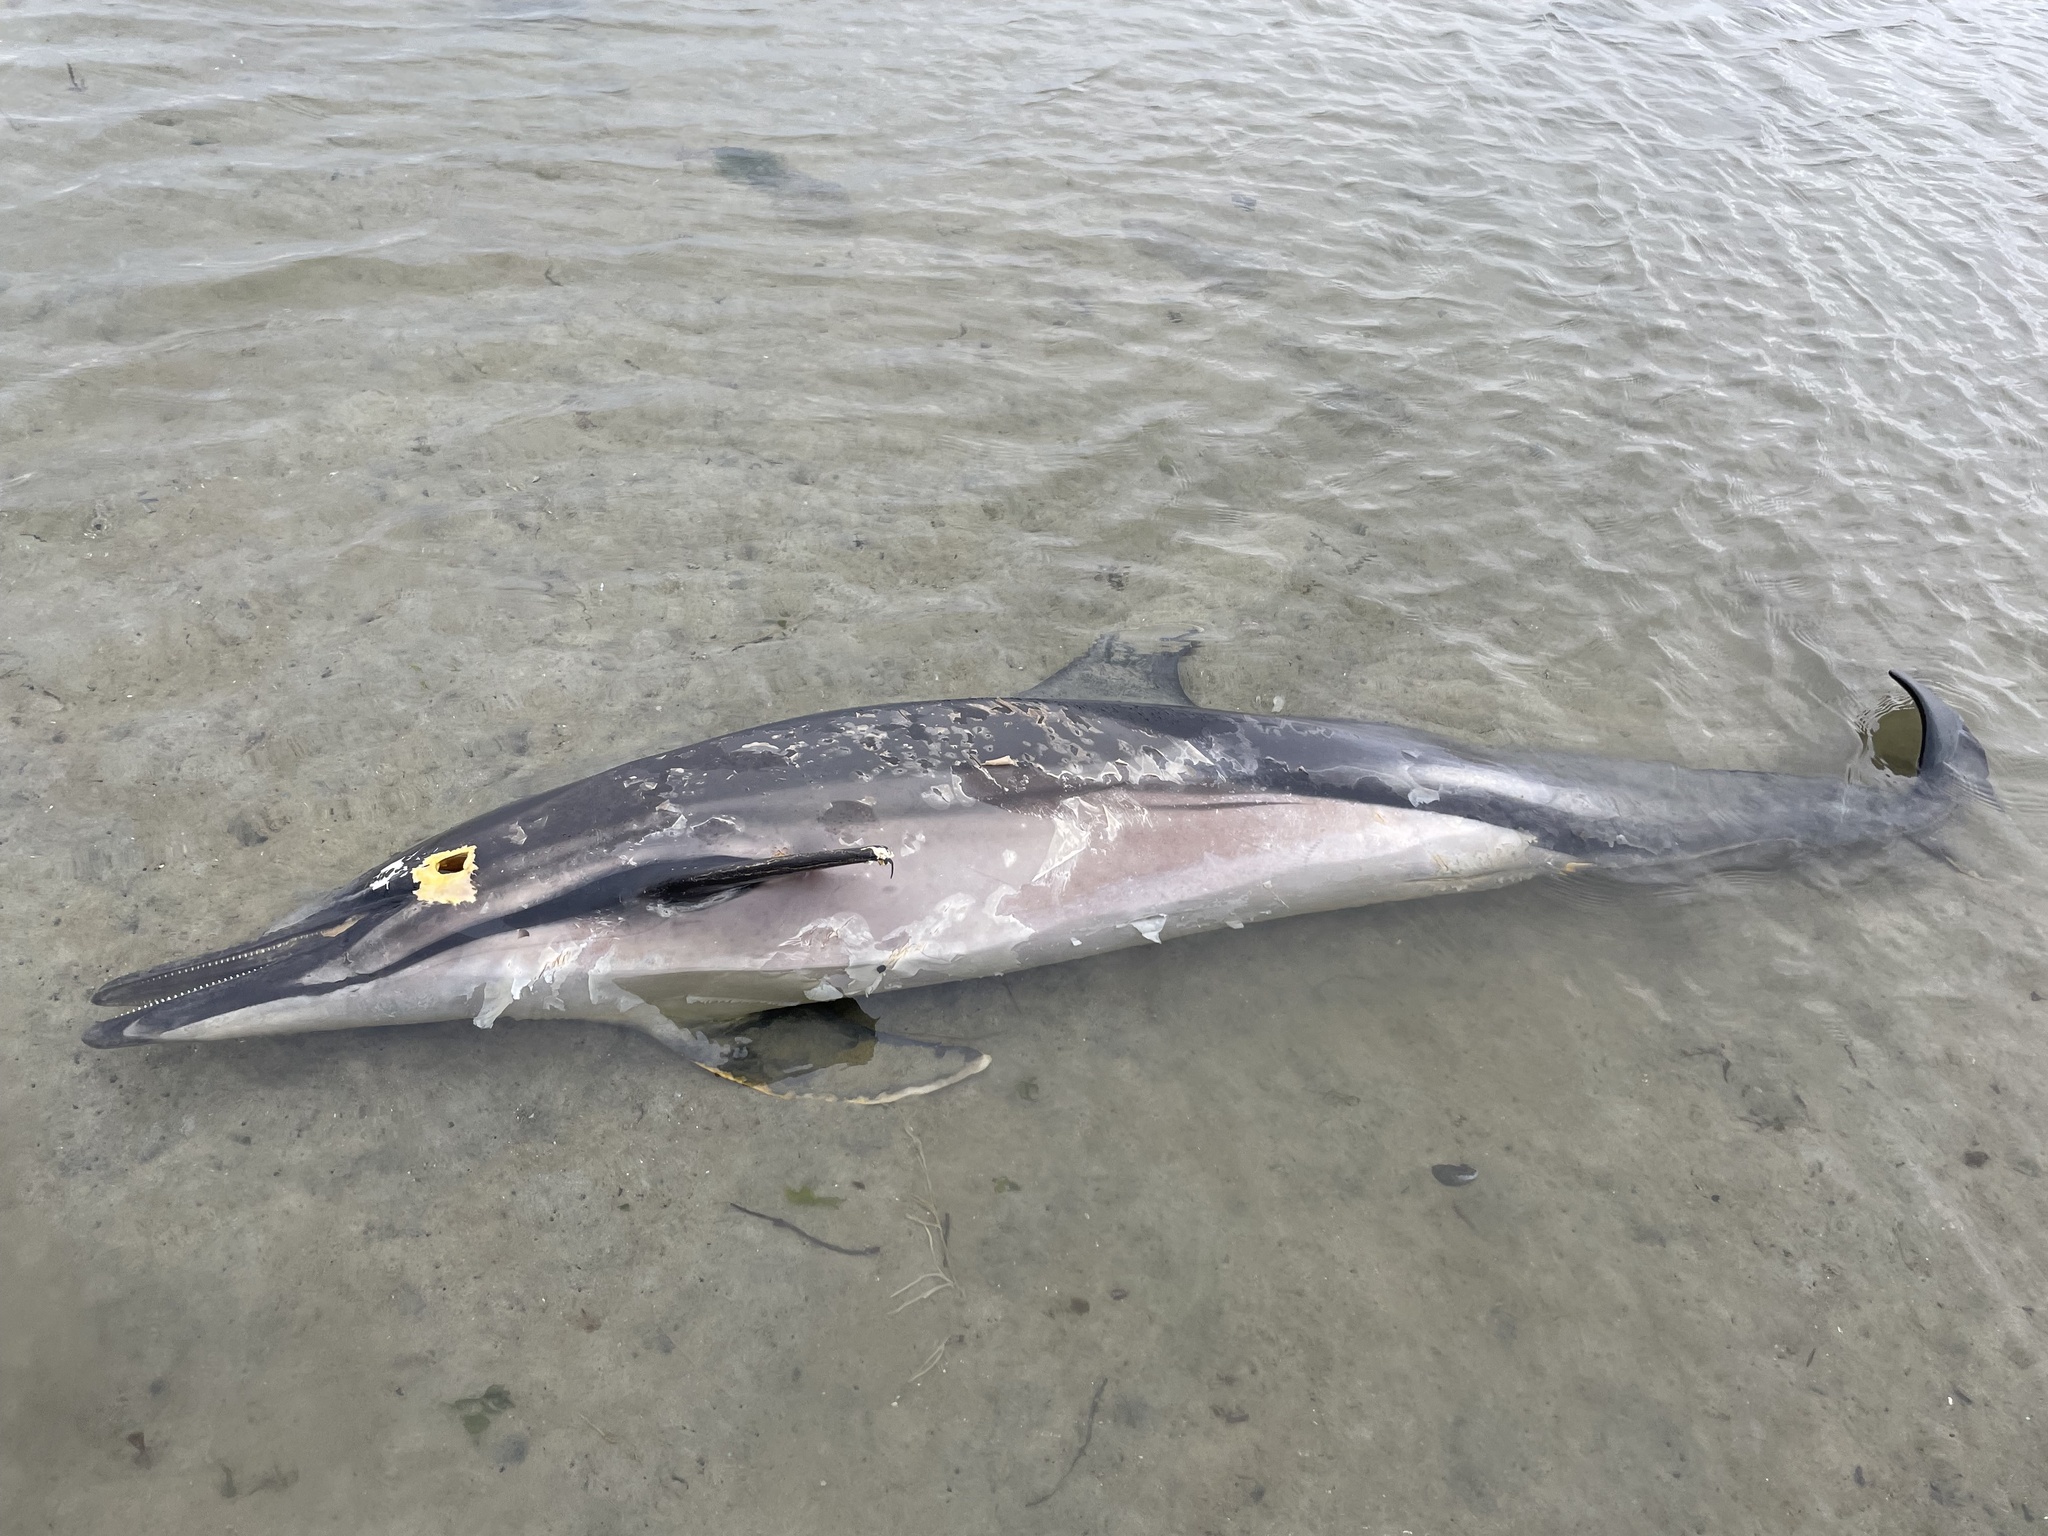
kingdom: Animalia
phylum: Chordata
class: Mammalia
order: Cetacea
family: Delphinidae
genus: Delphinus
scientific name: Delphinus delphis
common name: Common dolphin
